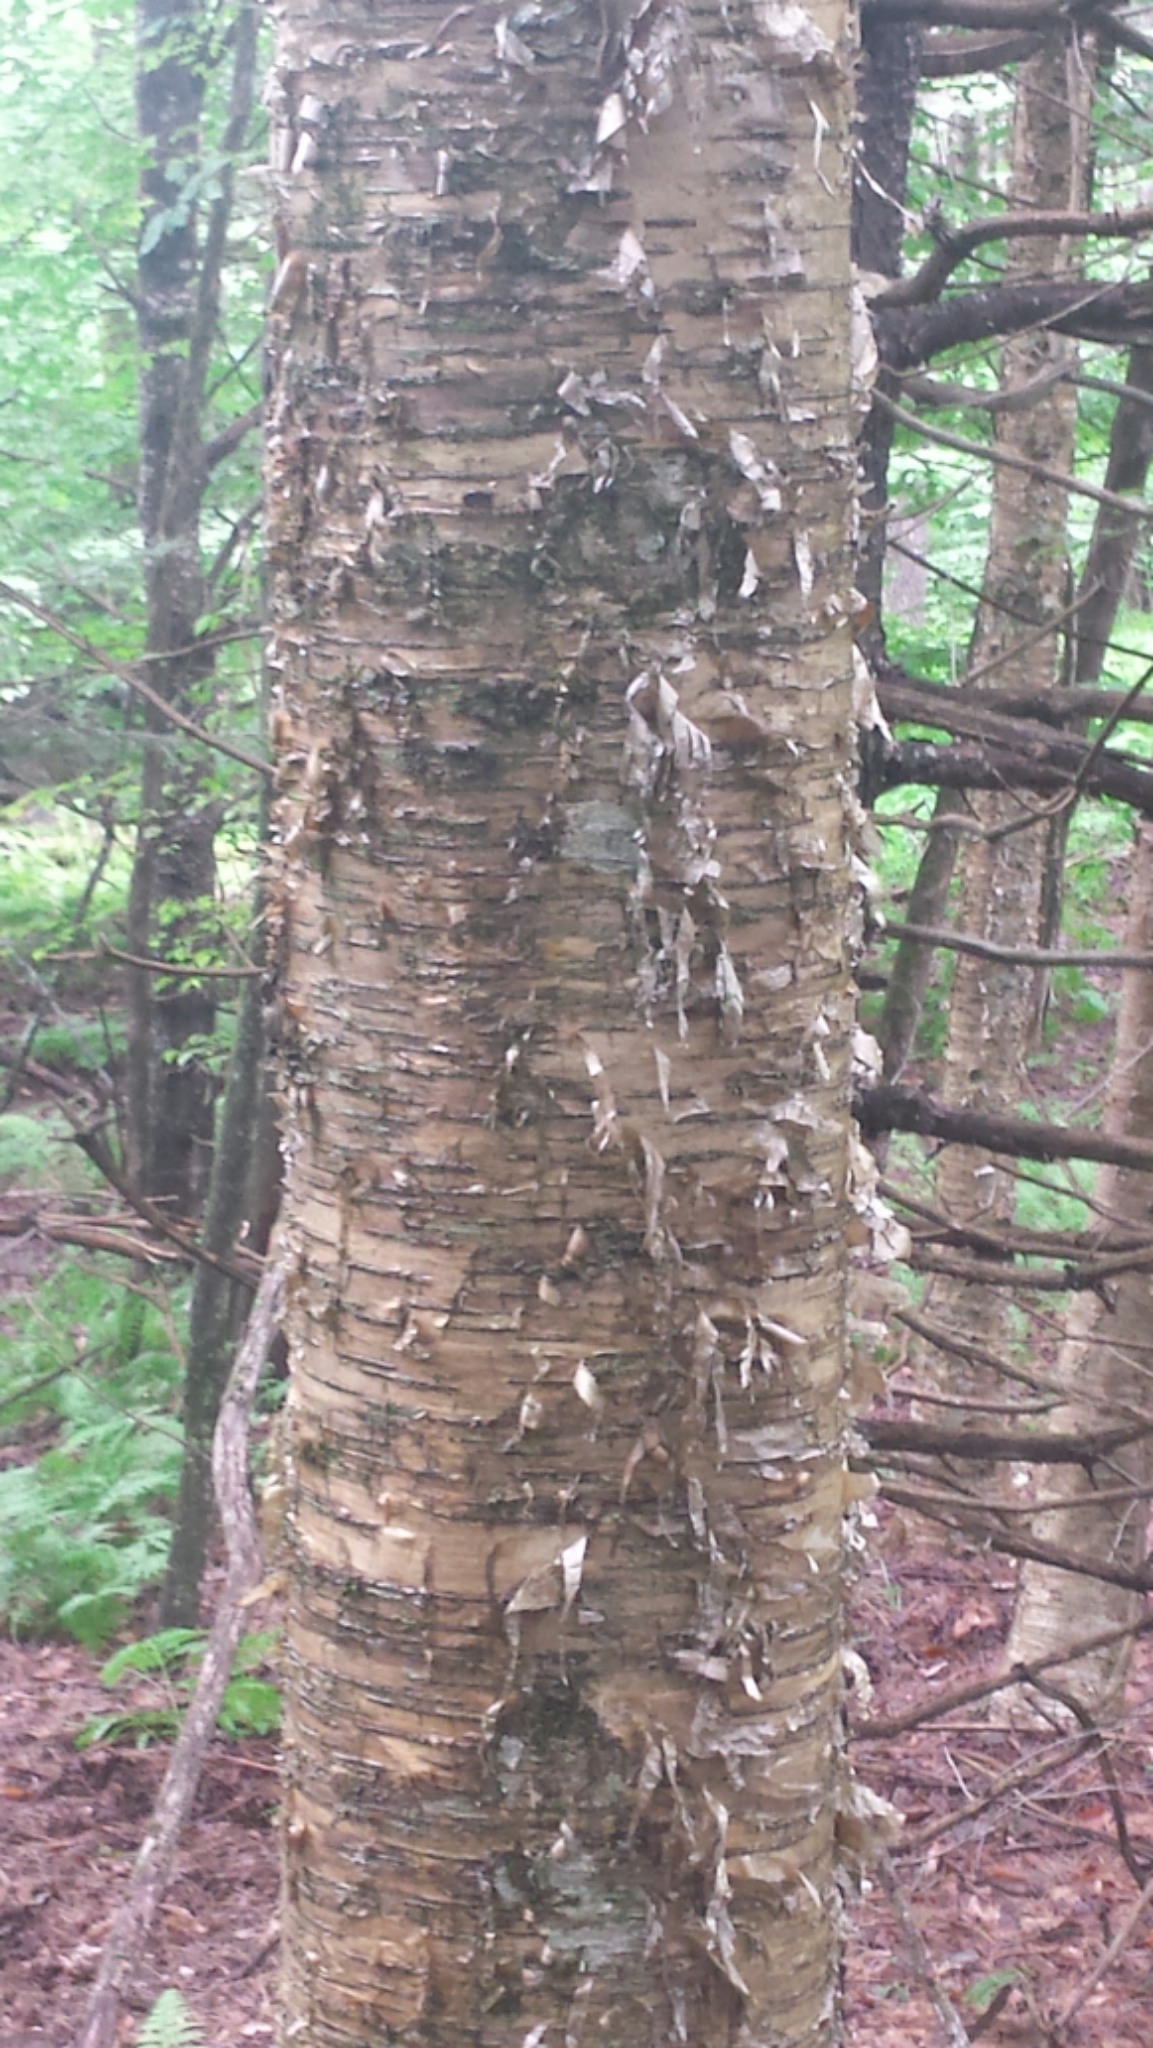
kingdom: Plantae
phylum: Tracheophyta
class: Magnoliopsida
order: Fagales
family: Betulaceae
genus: Betula
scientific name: Betula alleghaniensis
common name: Yellow birch
